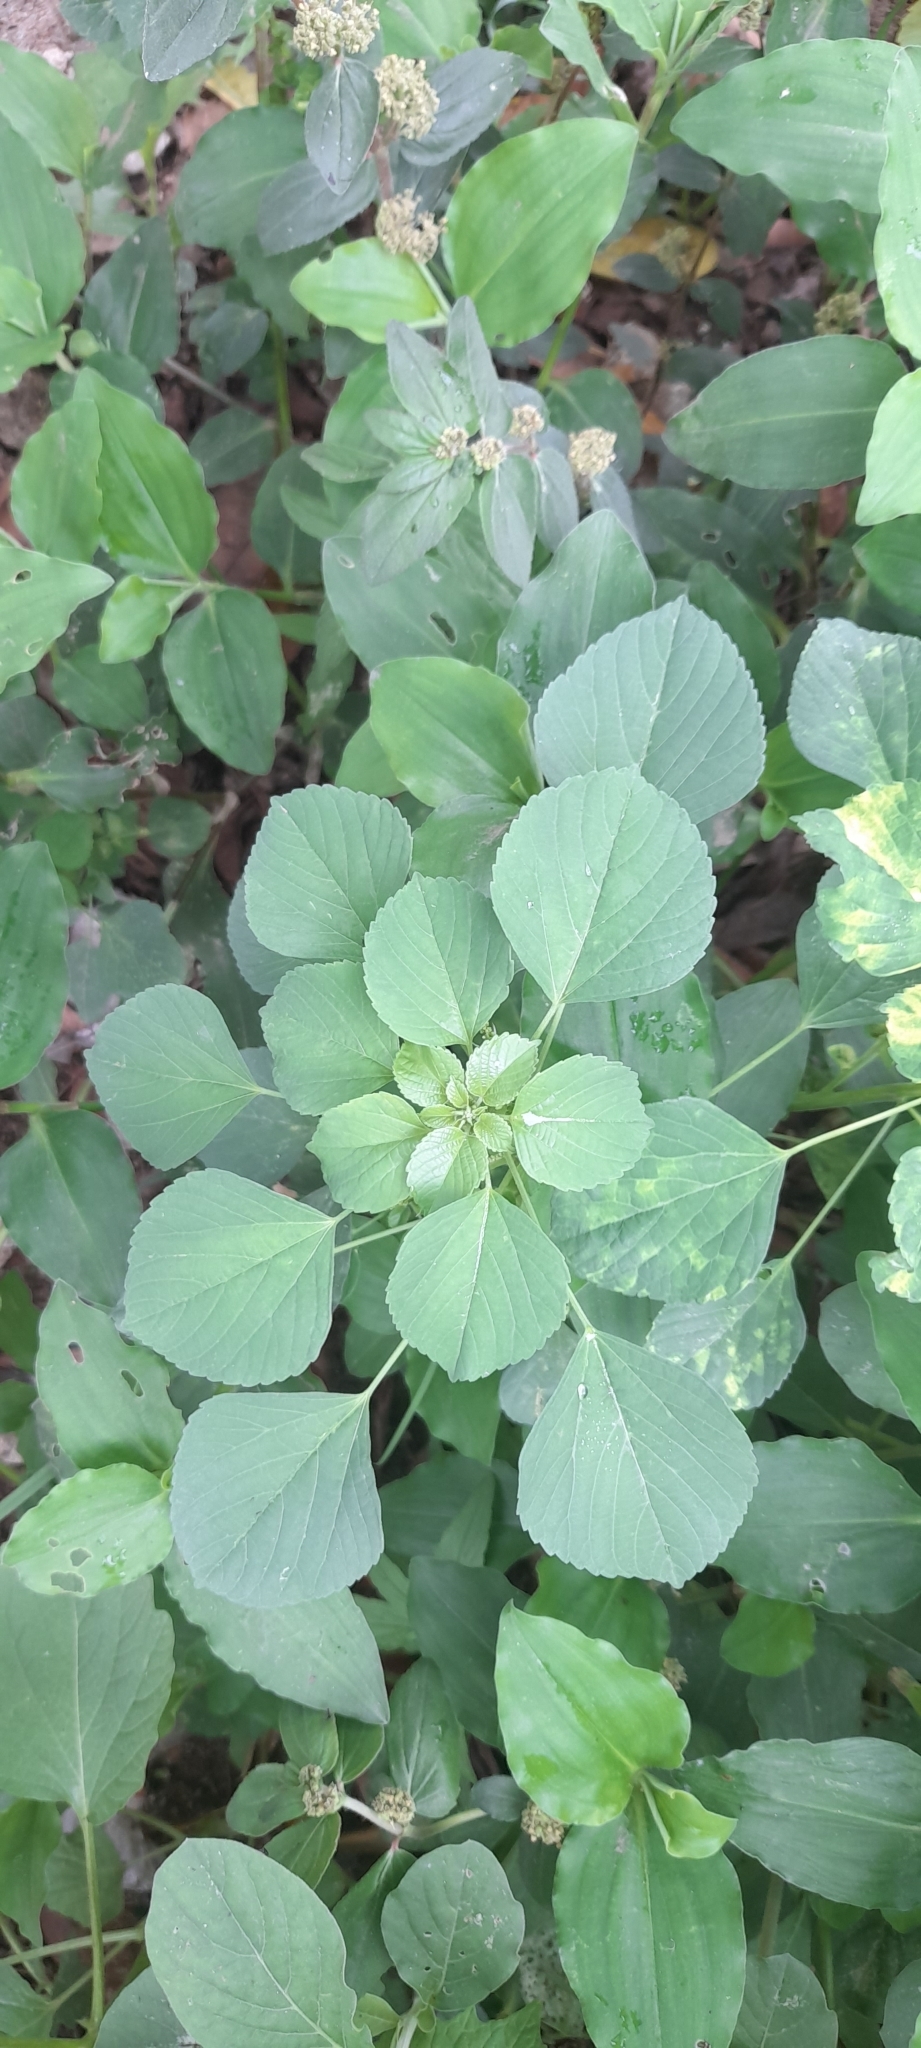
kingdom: Plantae
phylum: Tracheophyta
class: Magnoliopsida
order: Malpighiales
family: Euphorbiaceae
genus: Acalypha
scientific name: Acalypha indica
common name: Indian acalypha
